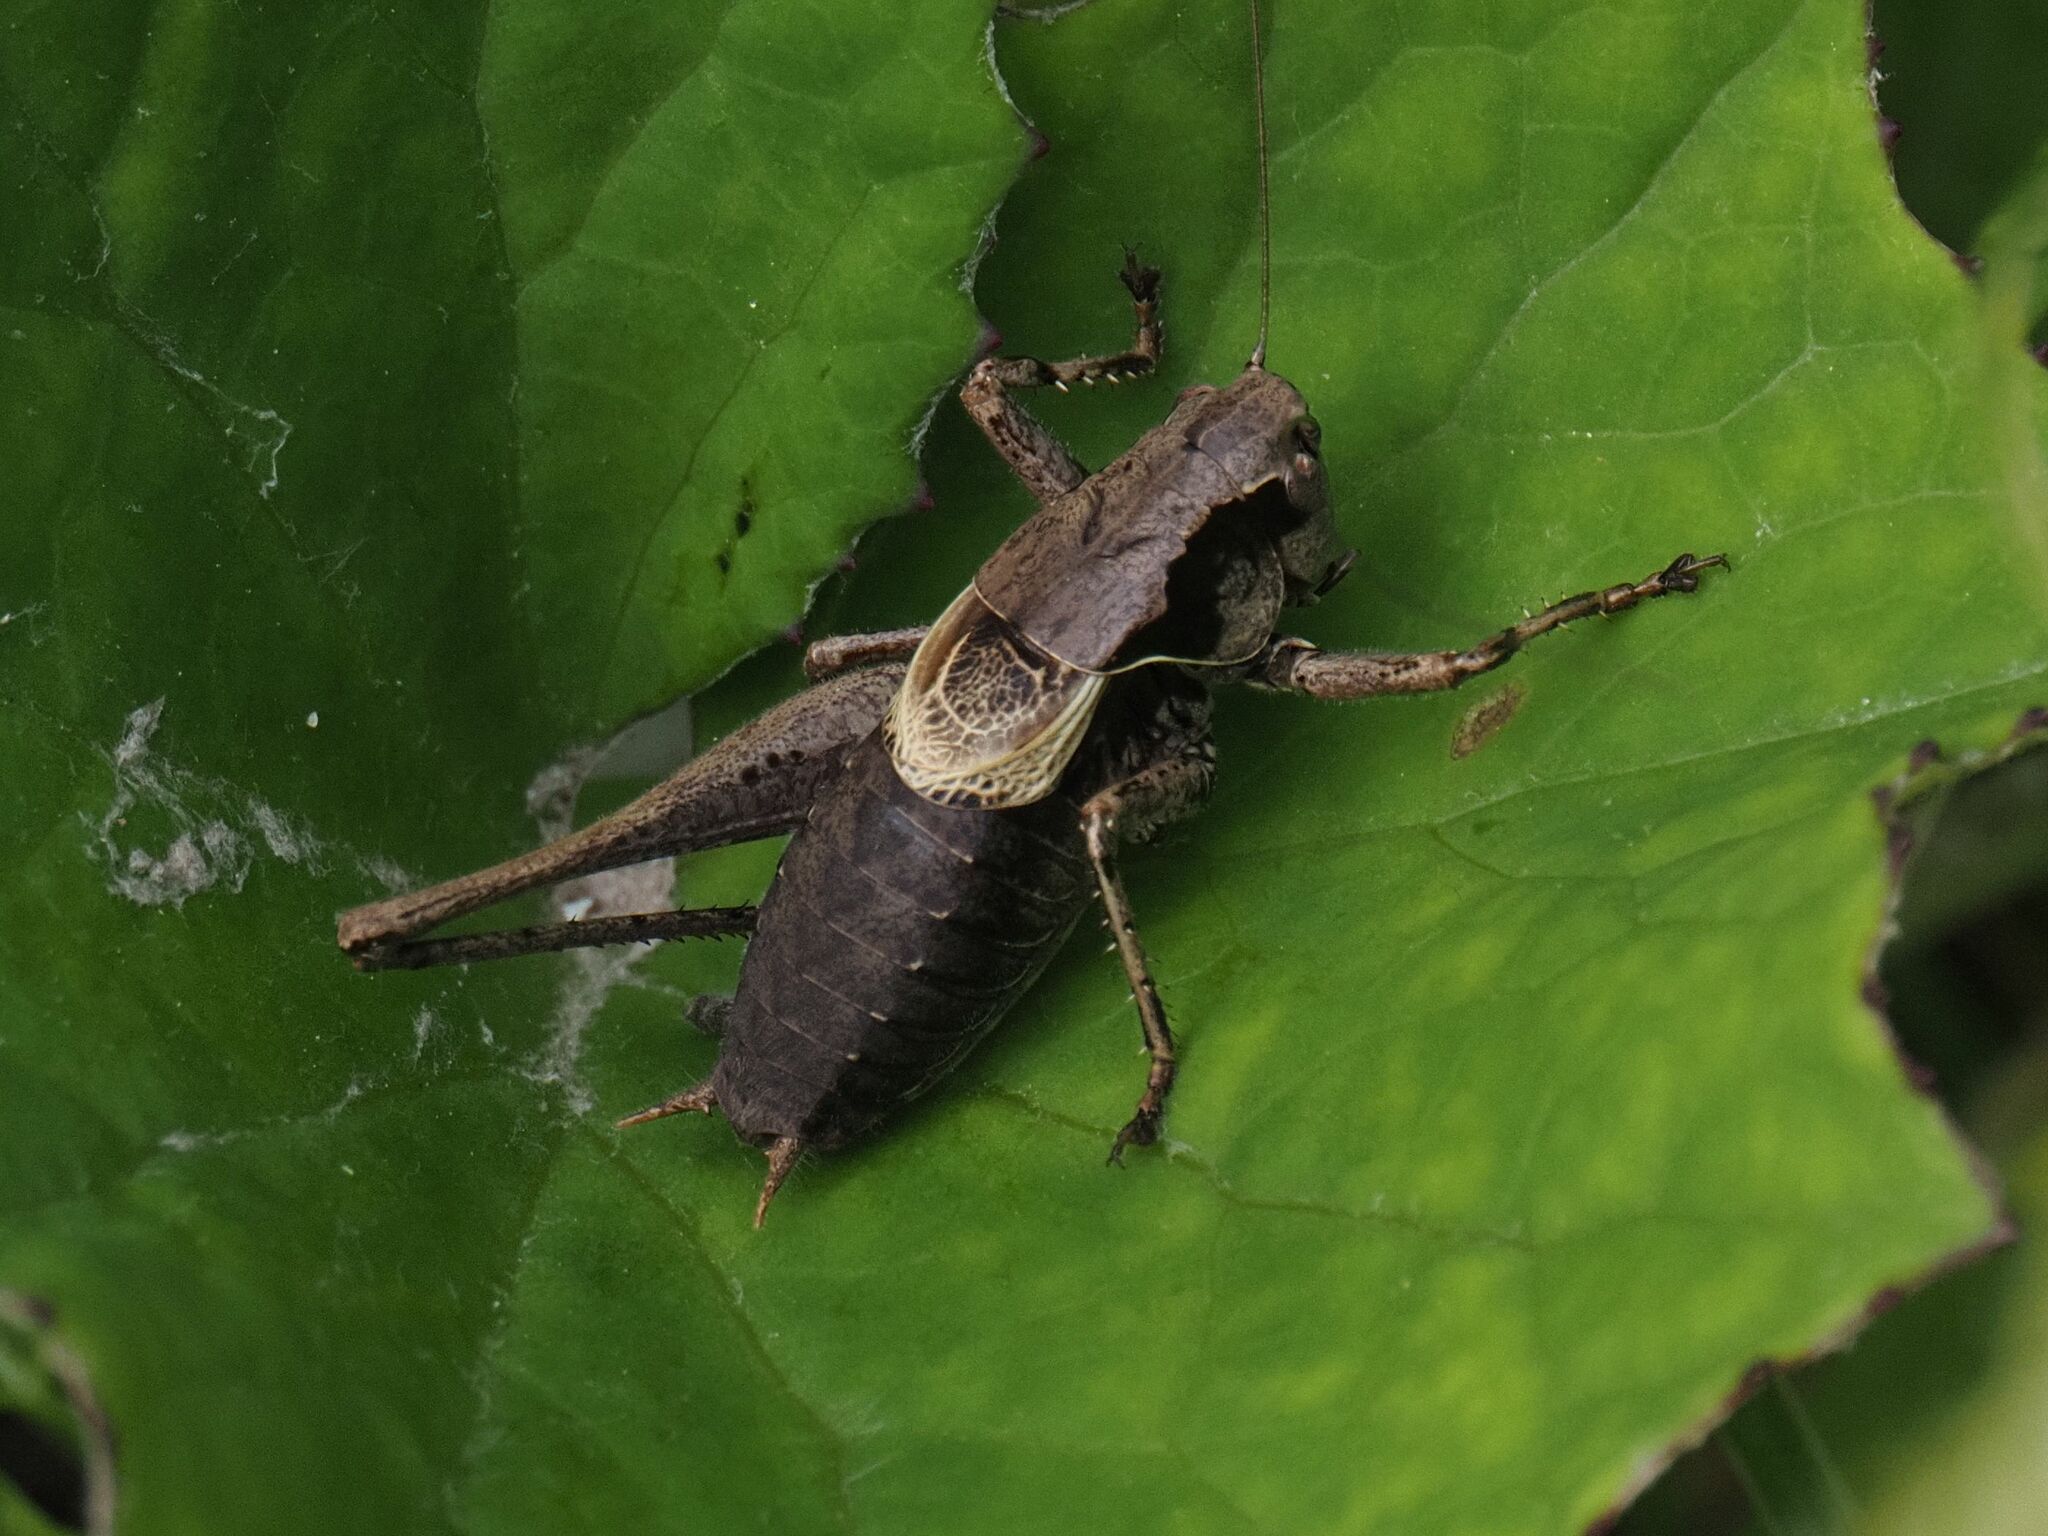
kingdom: Animalia
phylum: Arthropoda
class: Insecta
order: Orthoptera
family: Tettigoniidae
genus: Pholidoptera
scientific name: Pholidoptera griseoaptera
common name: Dark bush-cricket
